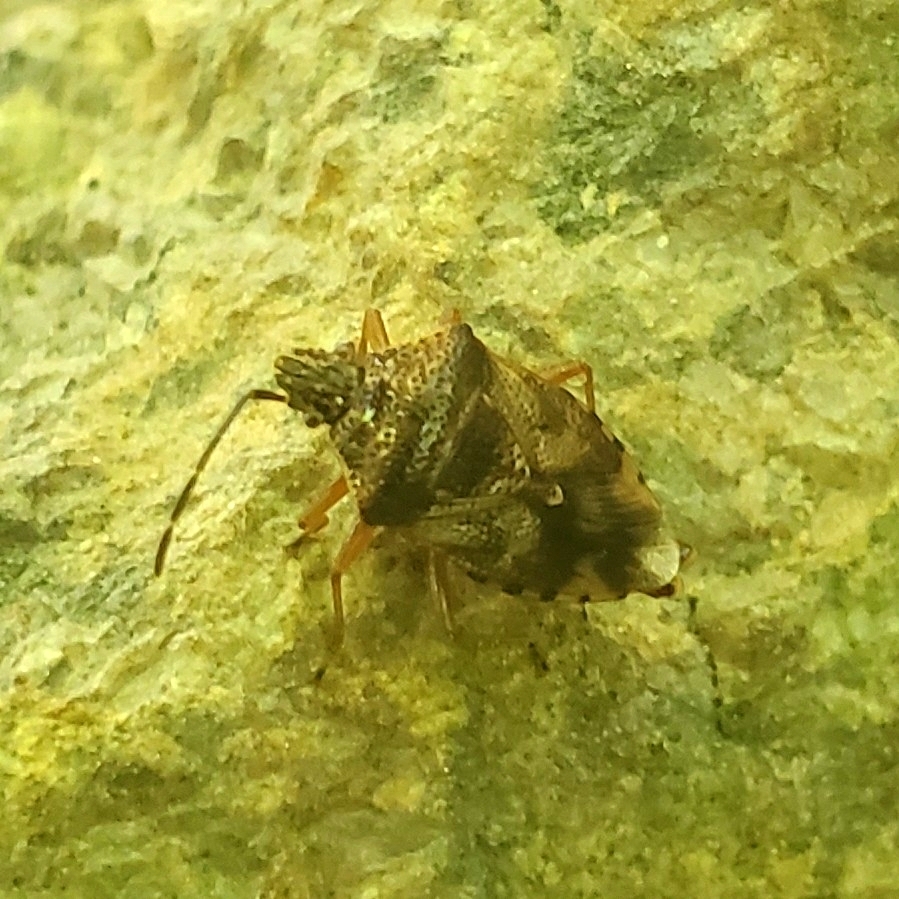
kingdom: Animalia
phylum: Arthropoda
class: Insecta
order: Hemiptera
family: Acanthosomatidae
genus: Elasmucha
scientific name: Elasmucha lateralis
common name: Shield bug
